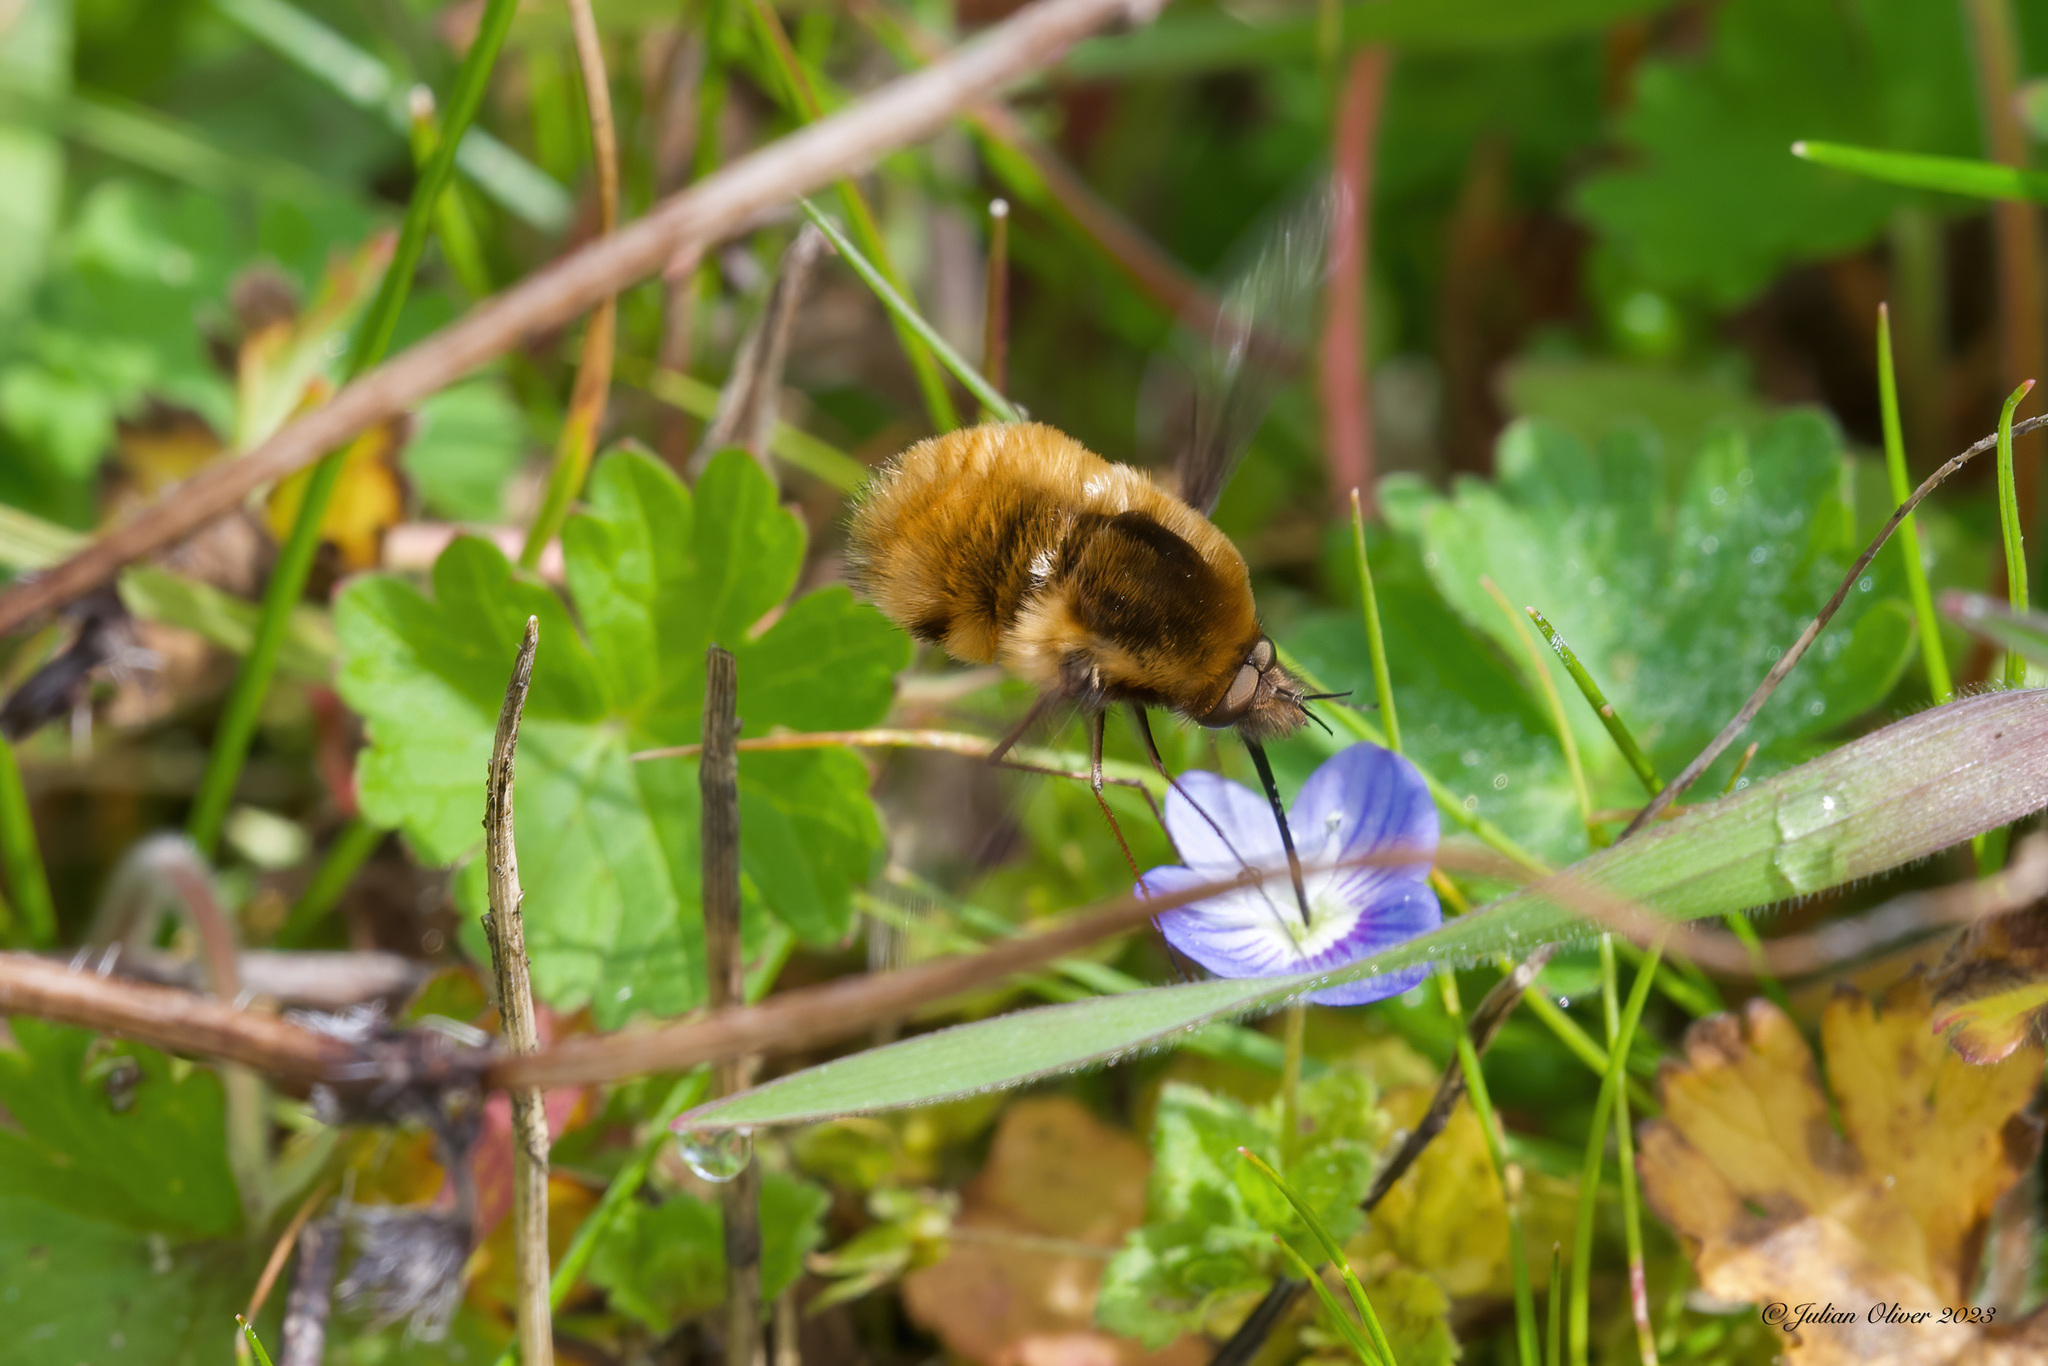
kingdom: Animalia
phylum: Arthropoda
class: Insecta
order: Diptera
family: Bombyliidae
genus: Bombylius
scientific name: Bombylius major
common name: Bee fly
